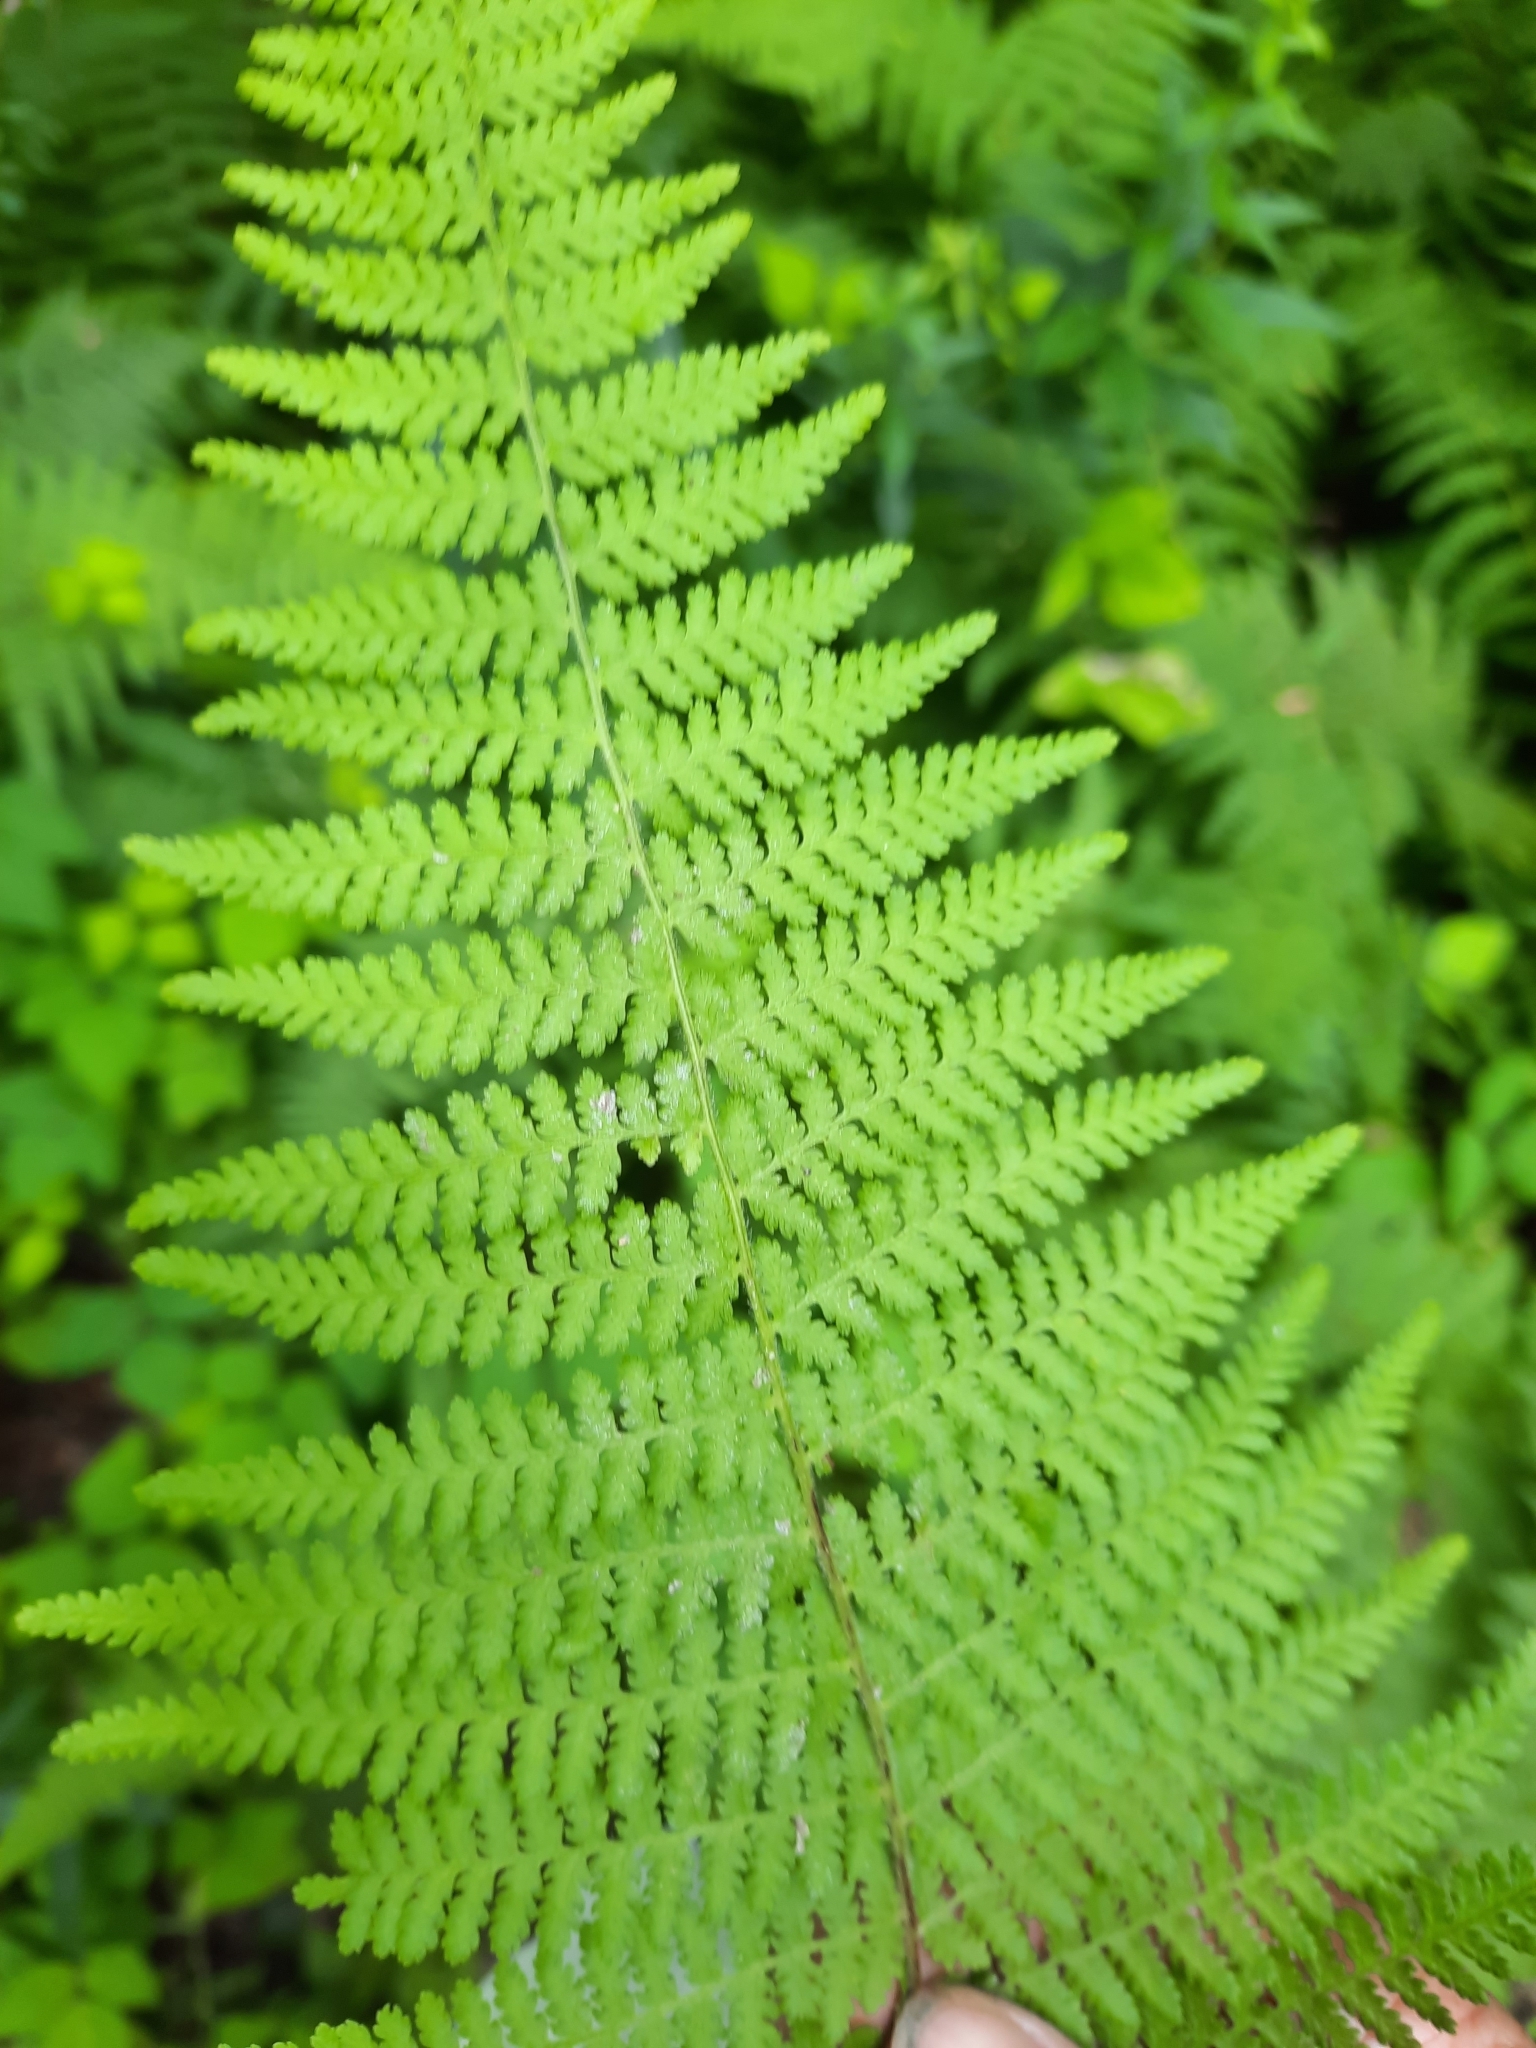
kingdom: Plantae
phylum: Tracheophyta
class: Polypodiopsida
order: Polypodiales
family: Dennstaedtiaceae
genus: Sitobolium
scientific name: Sitobolium punctilobum
